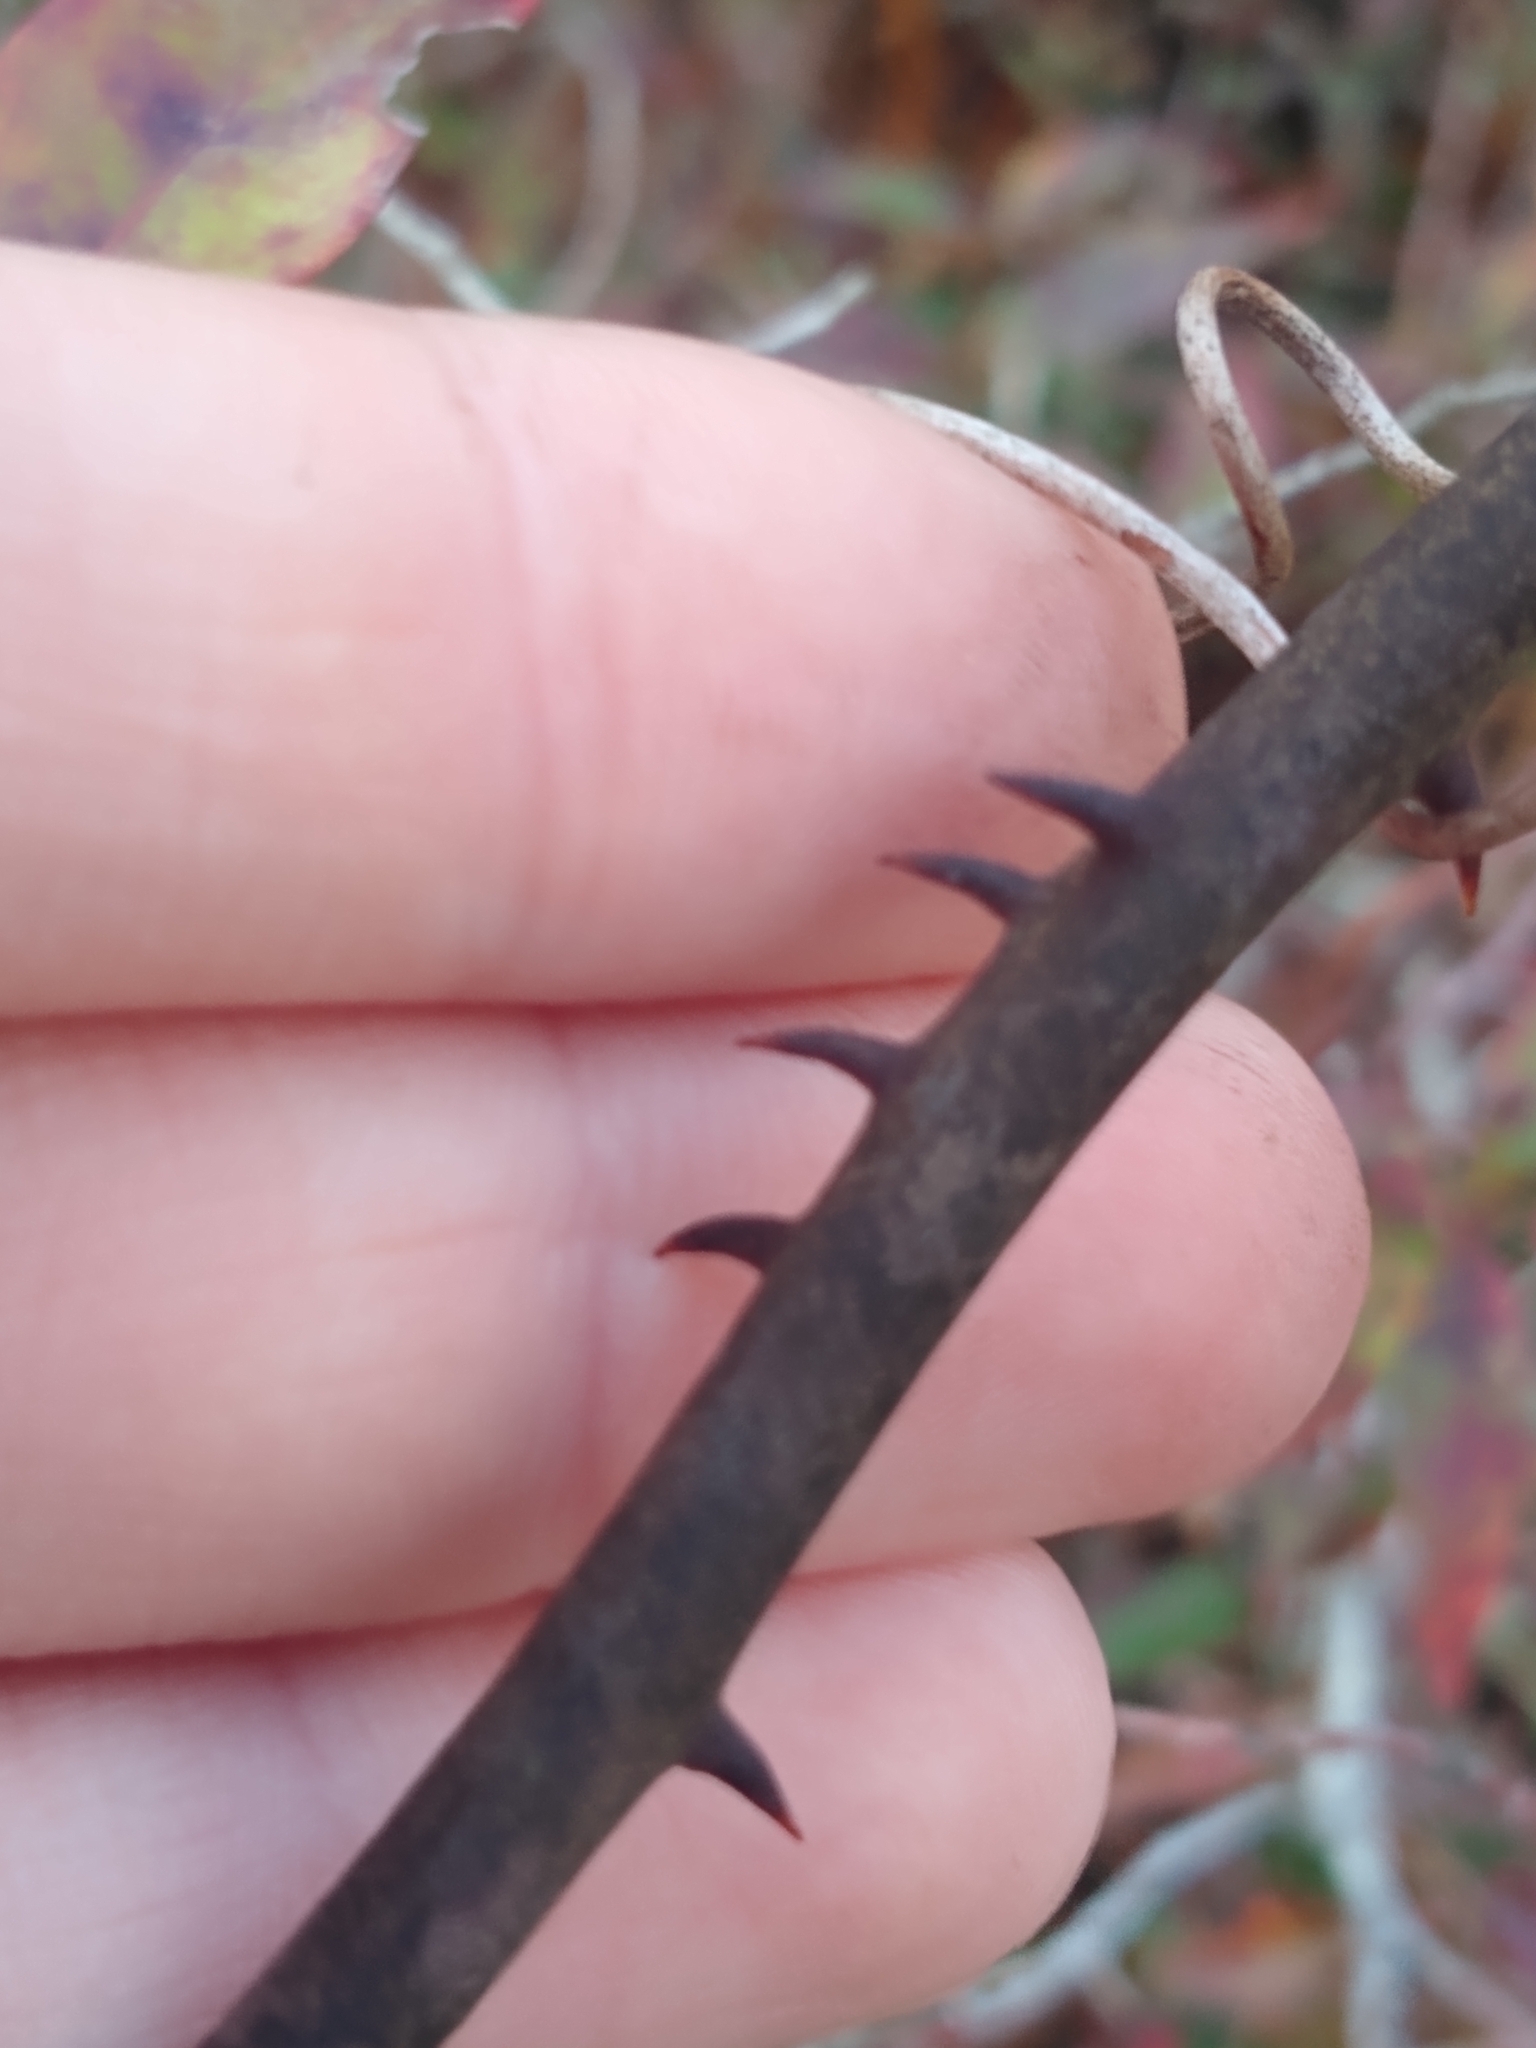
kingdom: Plantae
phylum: Tracheophyta
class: Liliopsida
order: Liliales
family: Smilacaceae
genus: Smilax
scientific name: Smilax bona-nox
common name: Catbrier
